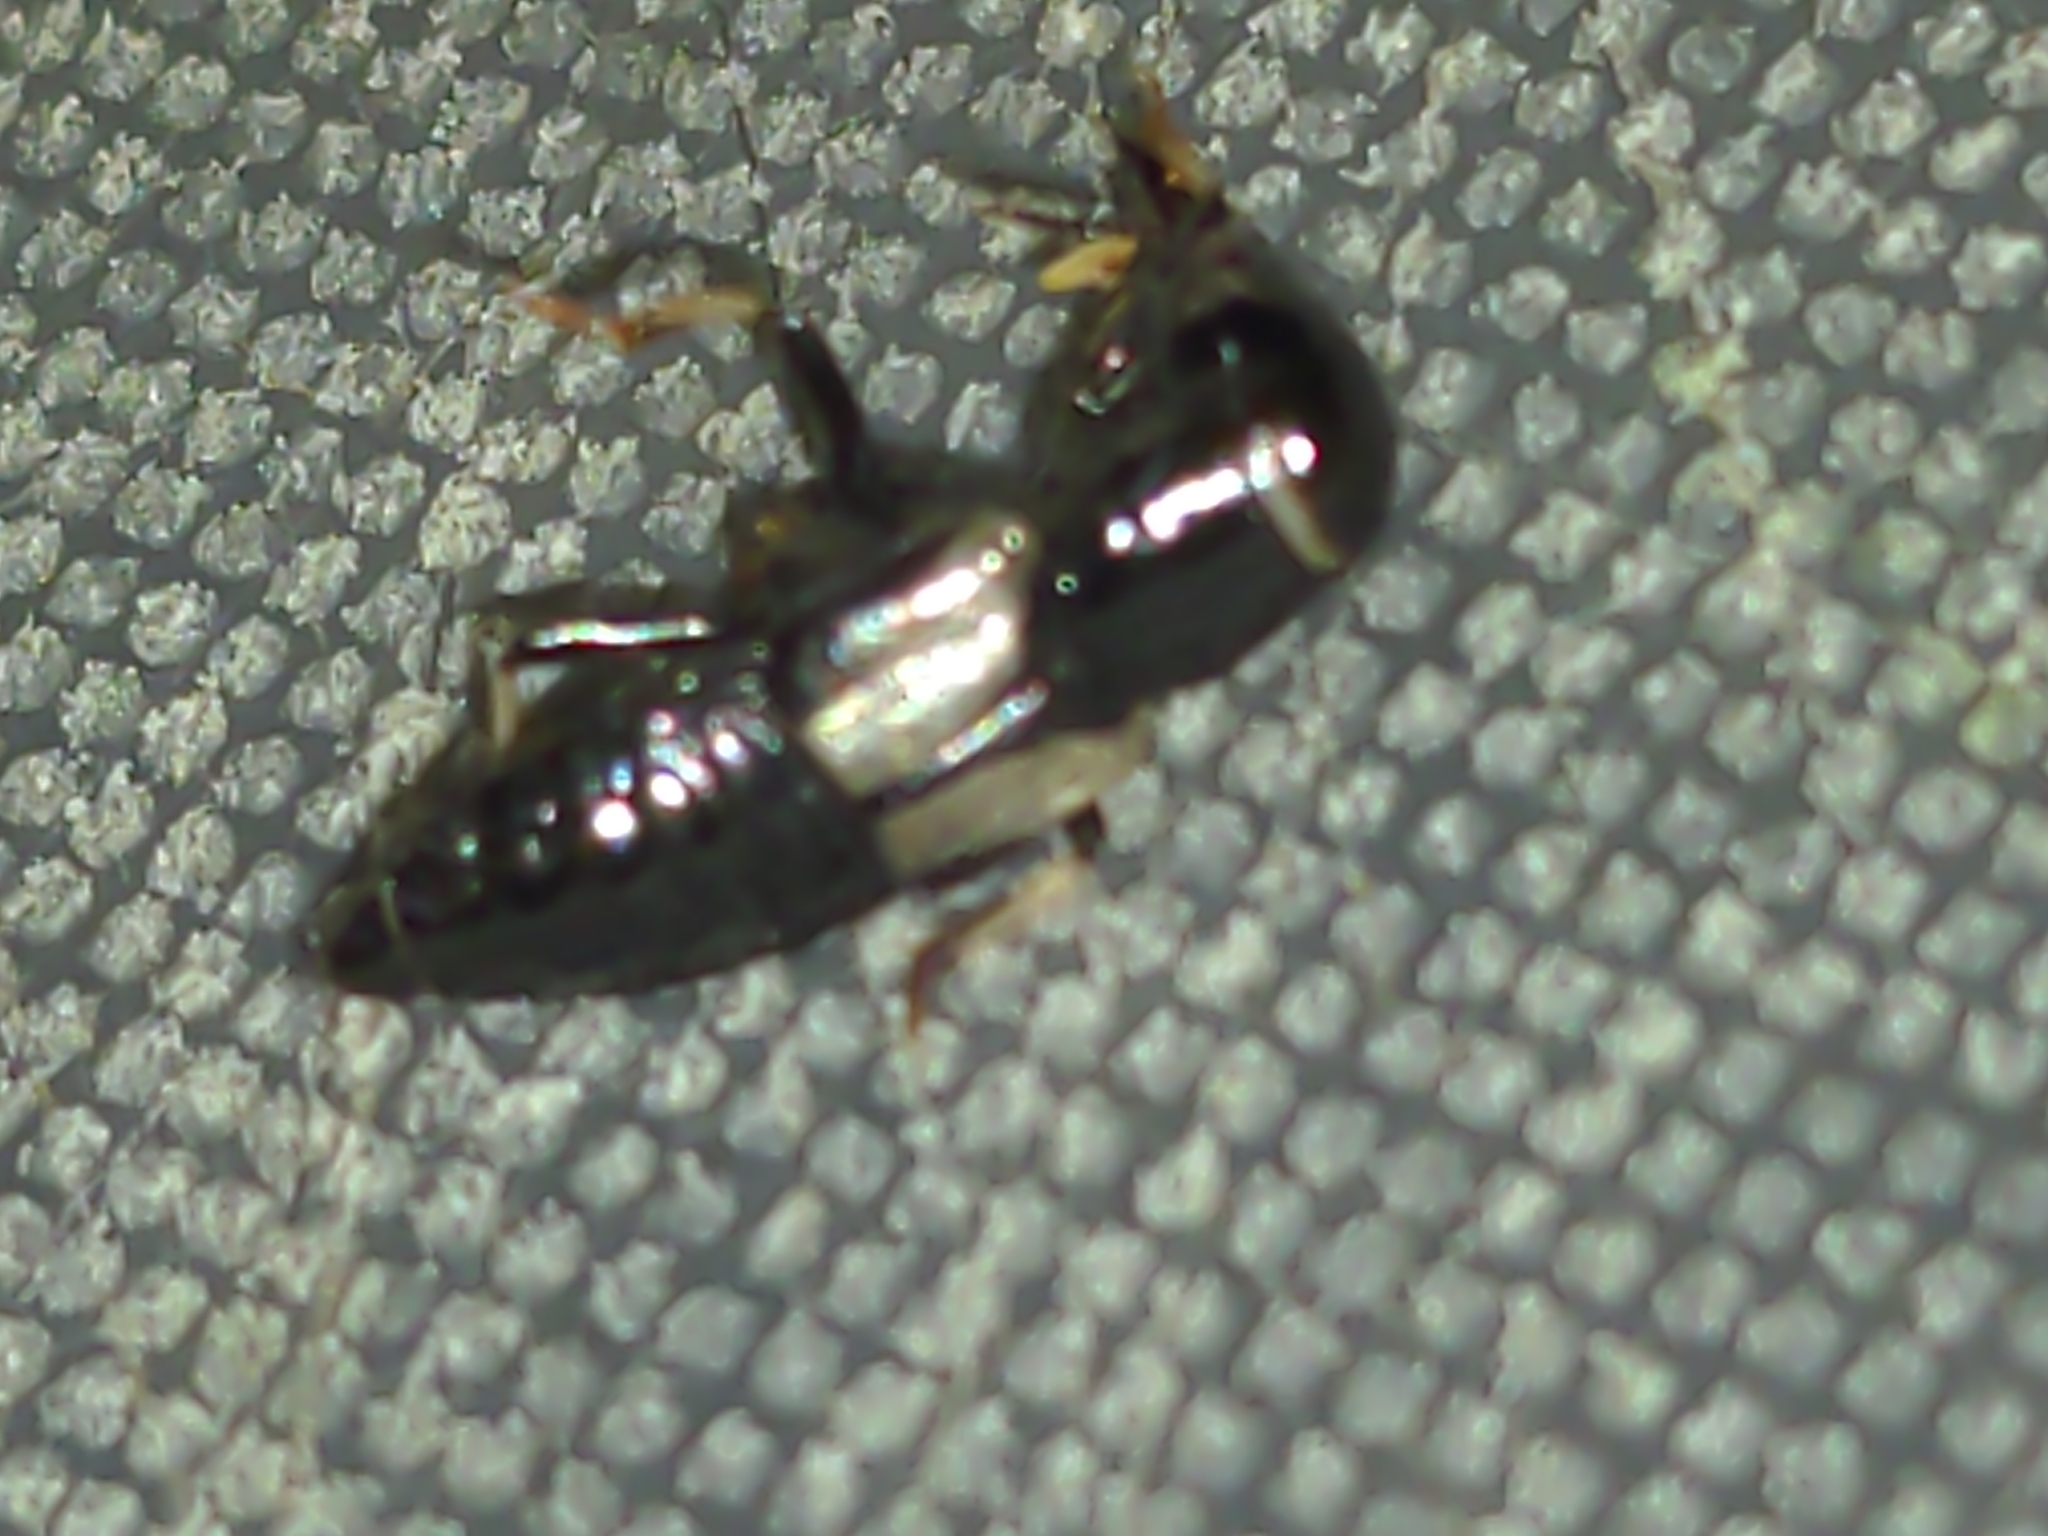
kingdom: Animalia
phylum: Arthropoda
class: Insecta
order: Coleoptera
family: Staphylinidae
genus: Oxyporus
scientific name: Oxyporus femoralis
